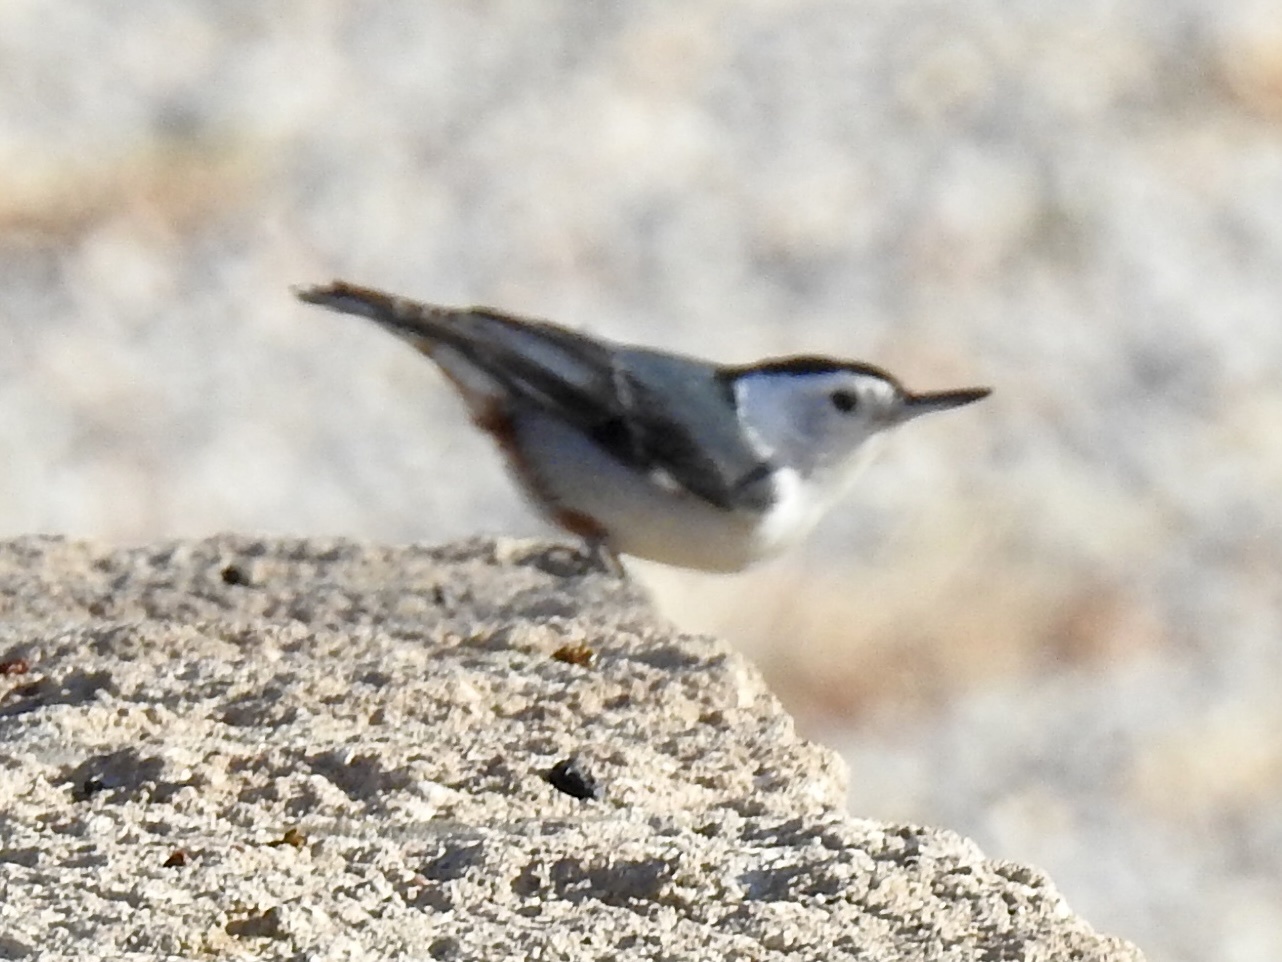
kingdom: Animalia
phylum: Chordata
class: Aves
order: Passeriformes
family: Sittidae
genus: Sitta
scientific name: Sitta carolinensis
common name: White-breasted nuthatch
